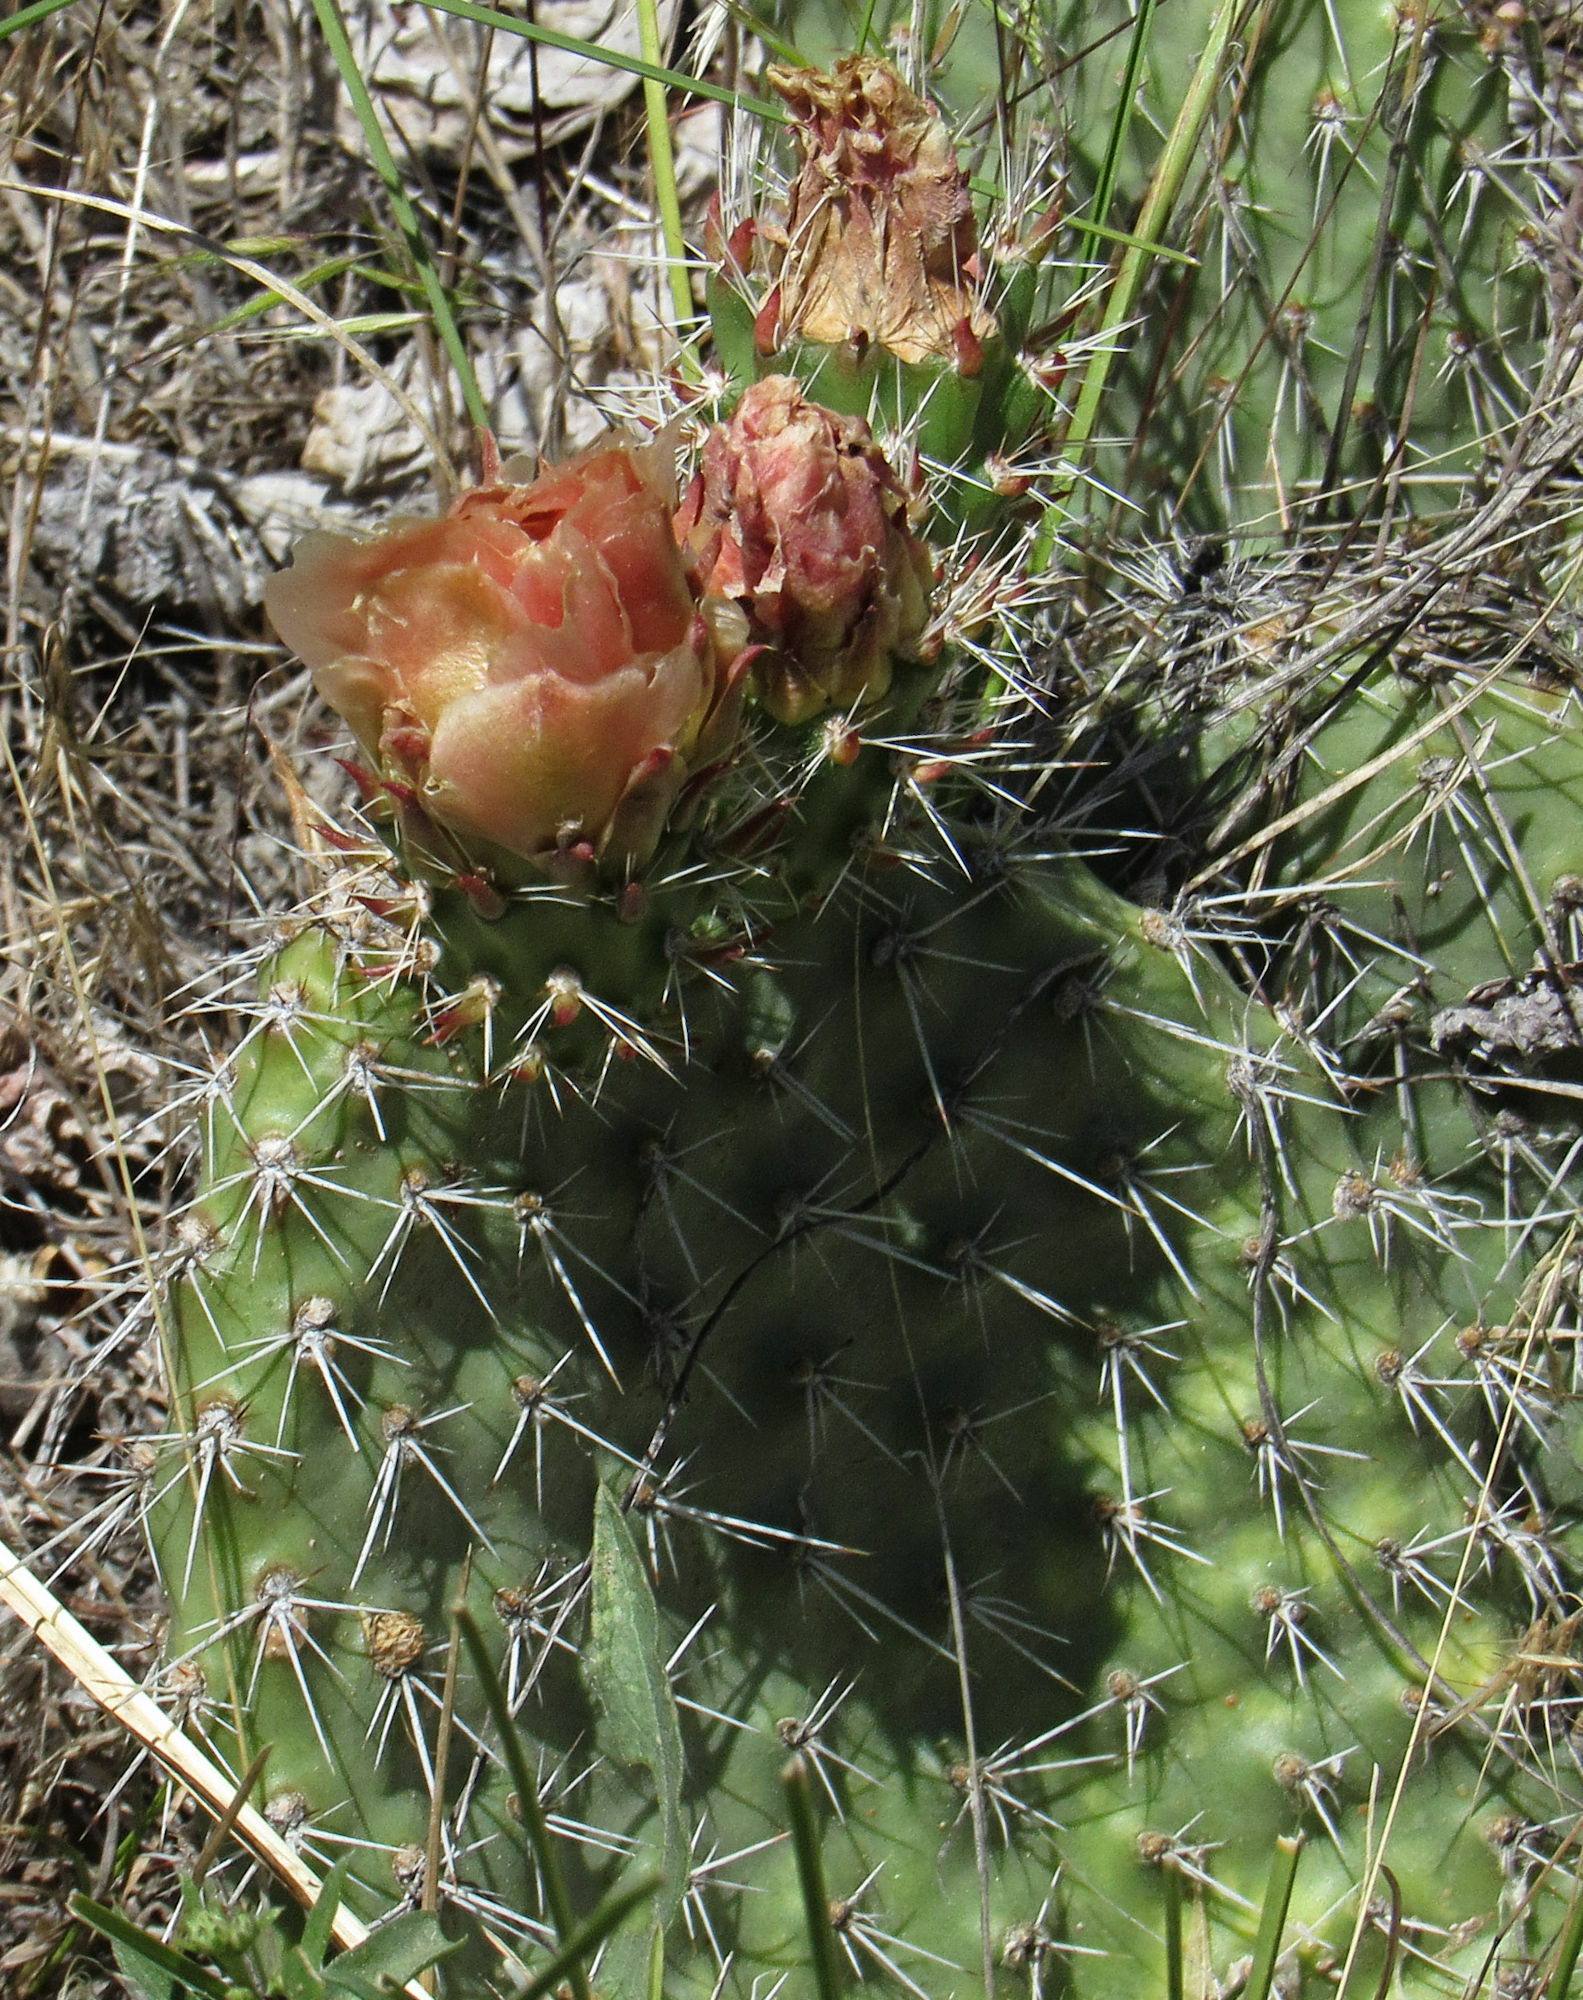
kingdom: Plantae
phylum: Tracheophyta
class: Magnoliopsida
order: Caryophyllales
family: Cactaceae
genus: Opuntia
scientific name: Opuntia polyacantha
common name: Plains prickly-pear
